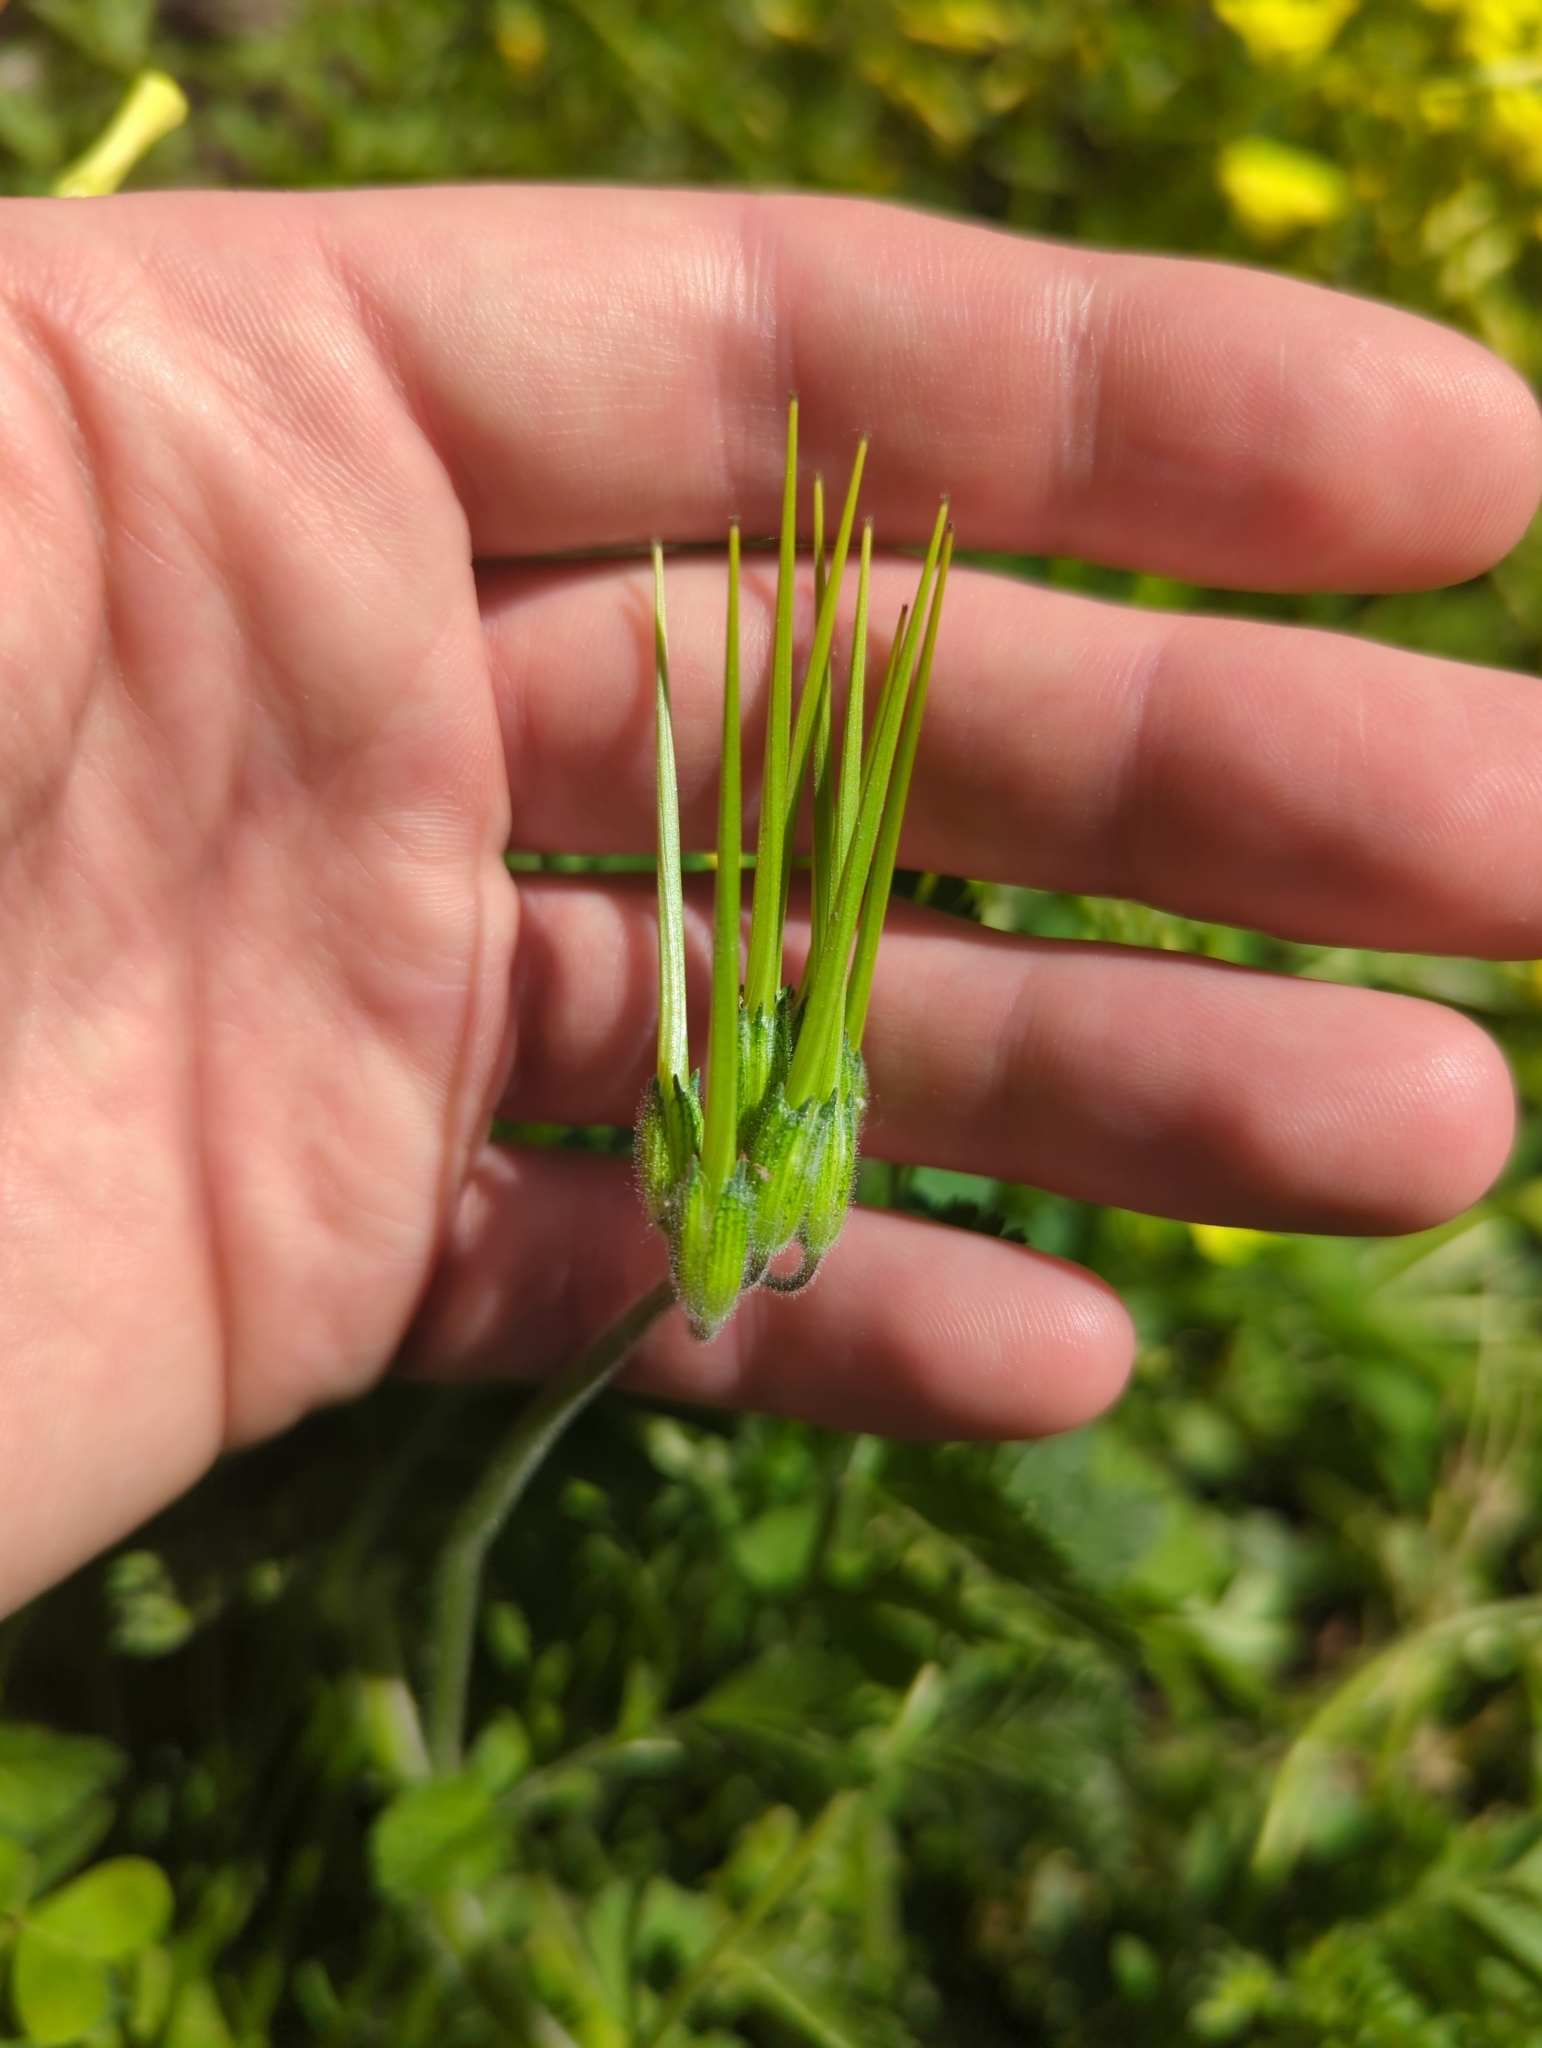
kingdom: Plantae
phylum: Tracheophyta
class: Magnoliopsida
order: Geraniales
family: Geraniaceae
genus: Erodium
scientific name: Erodium moschatum
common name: Musk stork's-bill
